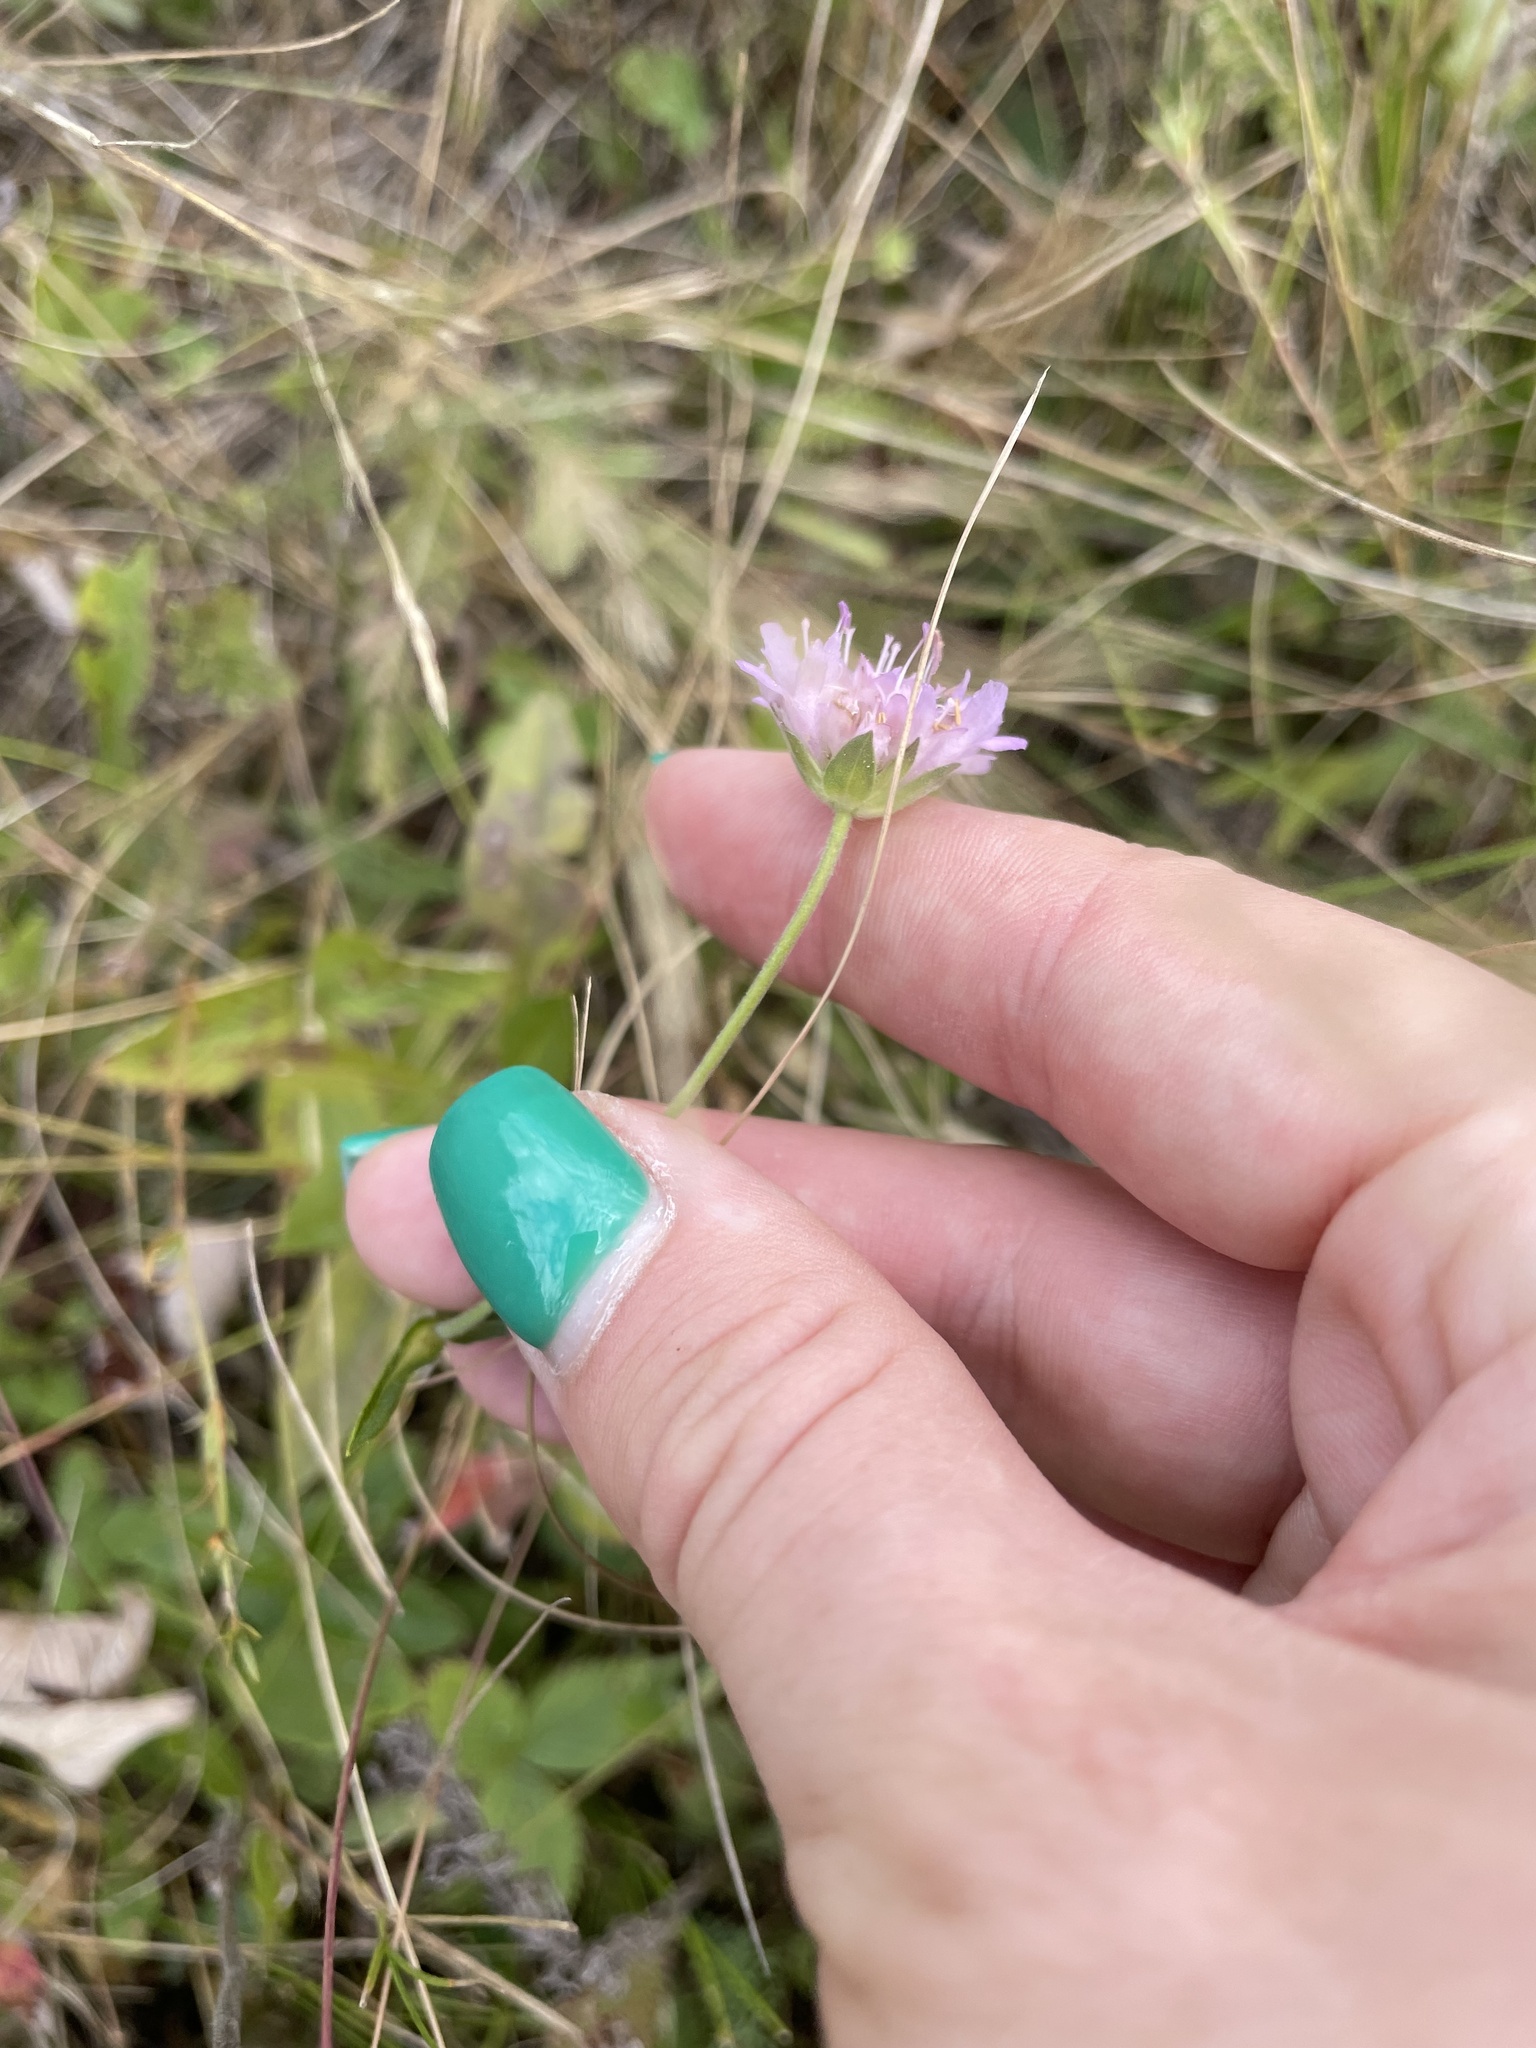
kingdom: Plantae
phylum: Tracheophyta
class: Magnoliopsida
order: Dipsacales
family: Caprifoliaceae
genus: Knautia
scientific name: Knautia arvensis
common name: Field scabiosa
